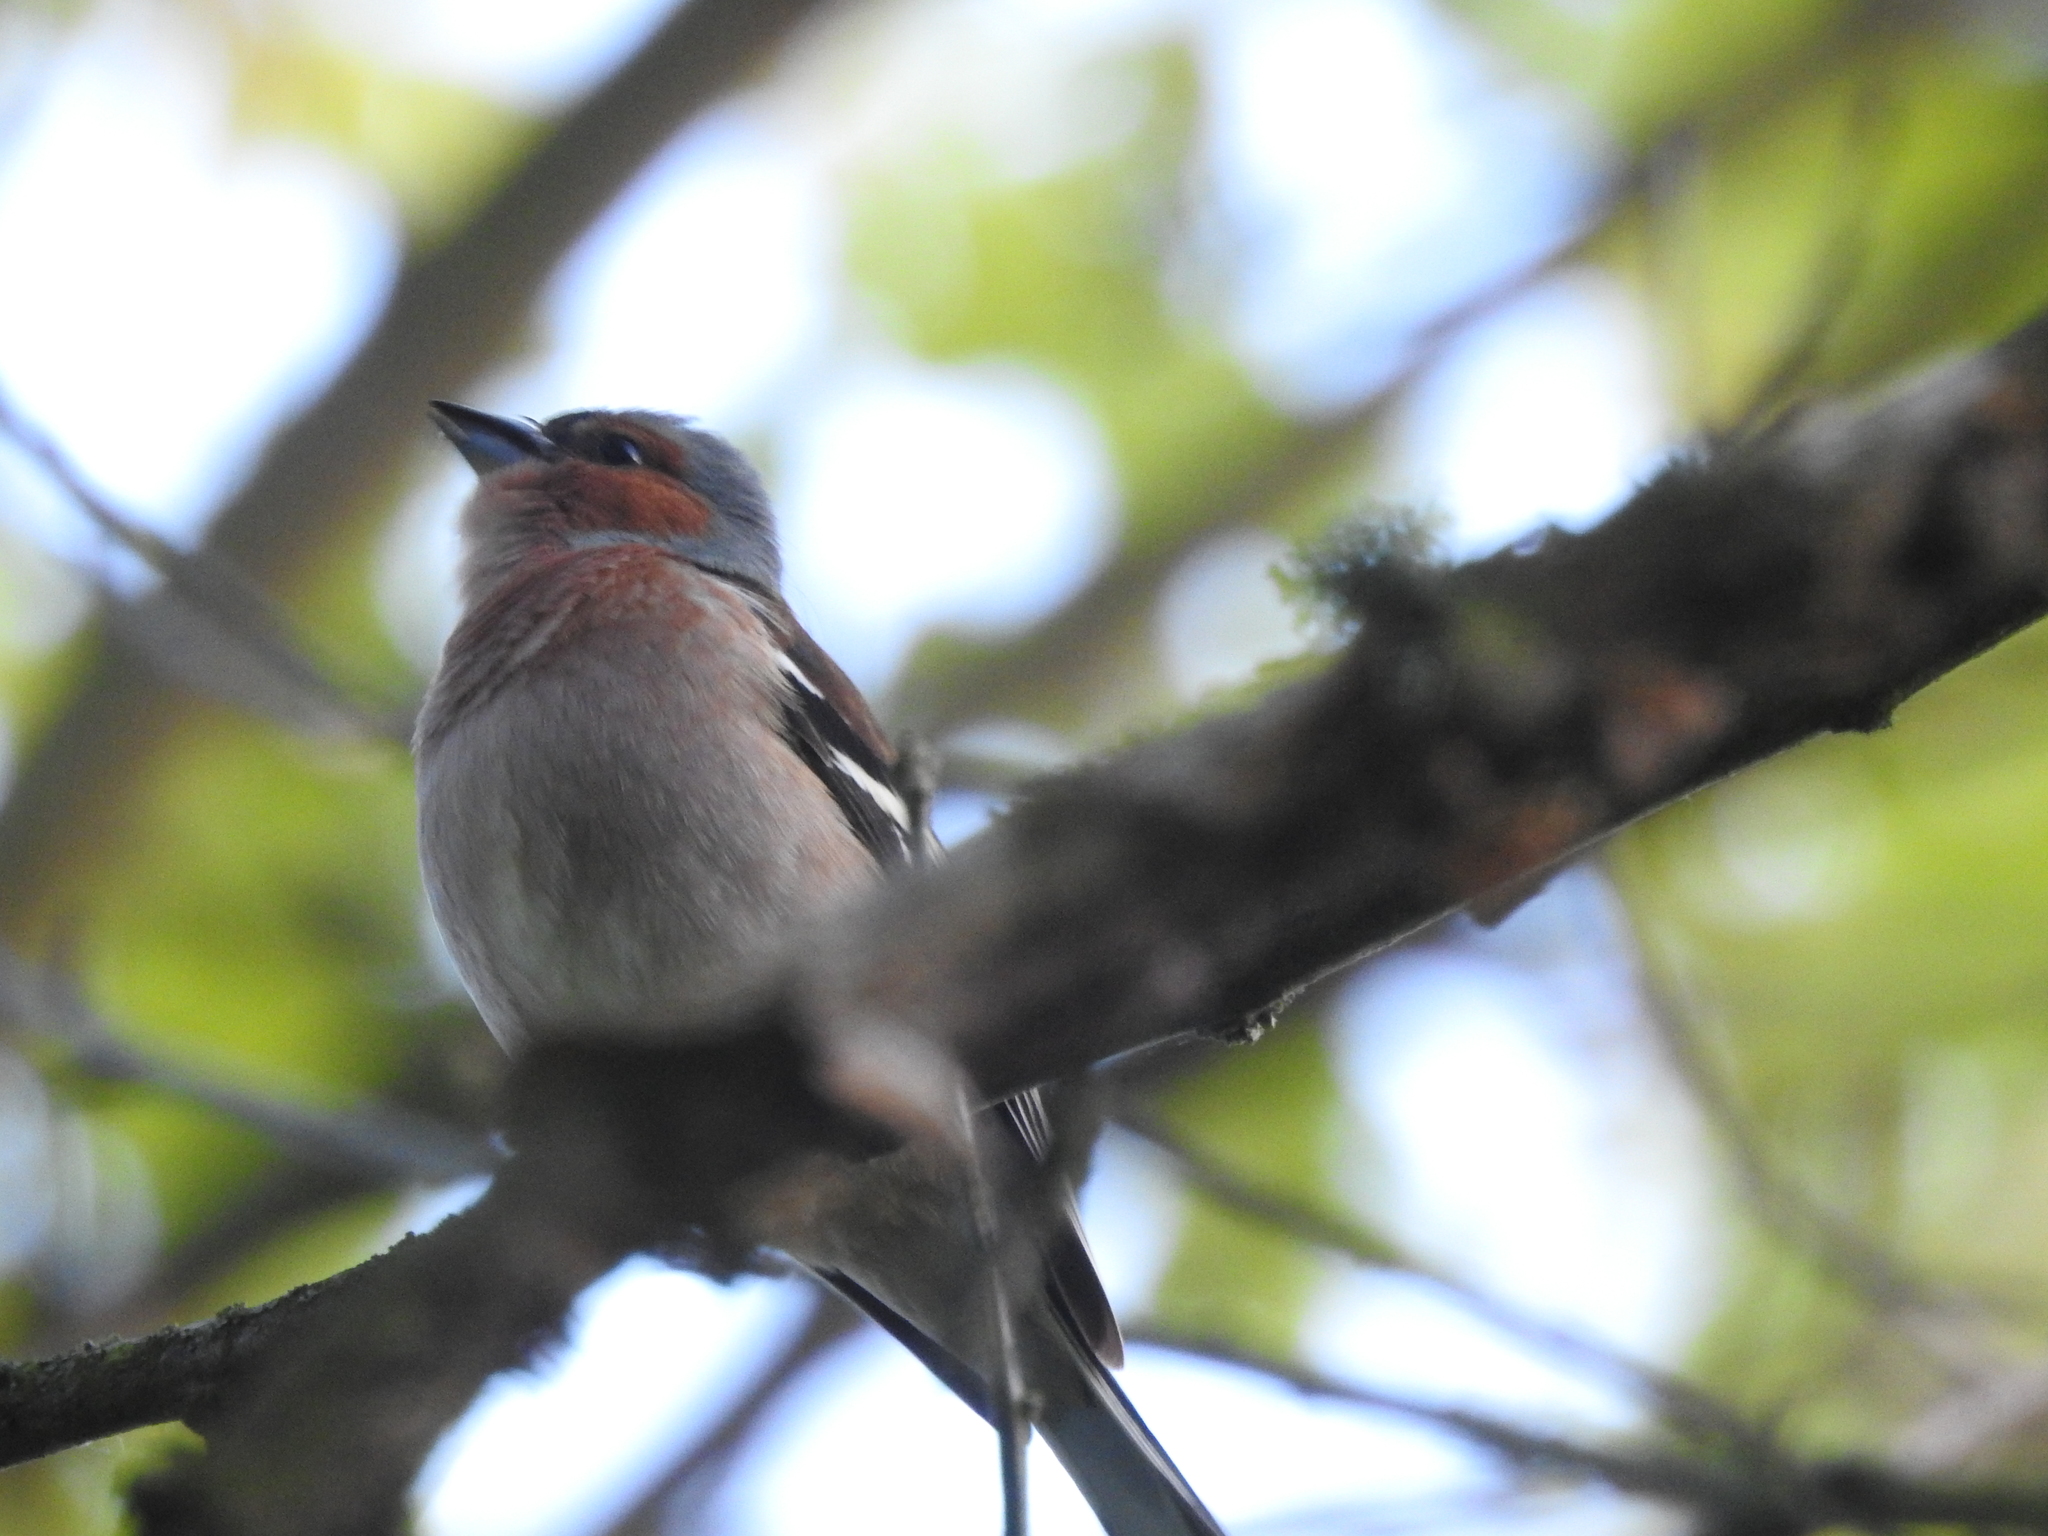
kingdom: Animalia
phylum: Chordata
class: Aves
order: Passeriformes
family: Fringillidae
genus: Fringilla
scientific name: Fringilla coelebs
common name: Common chaffinch
